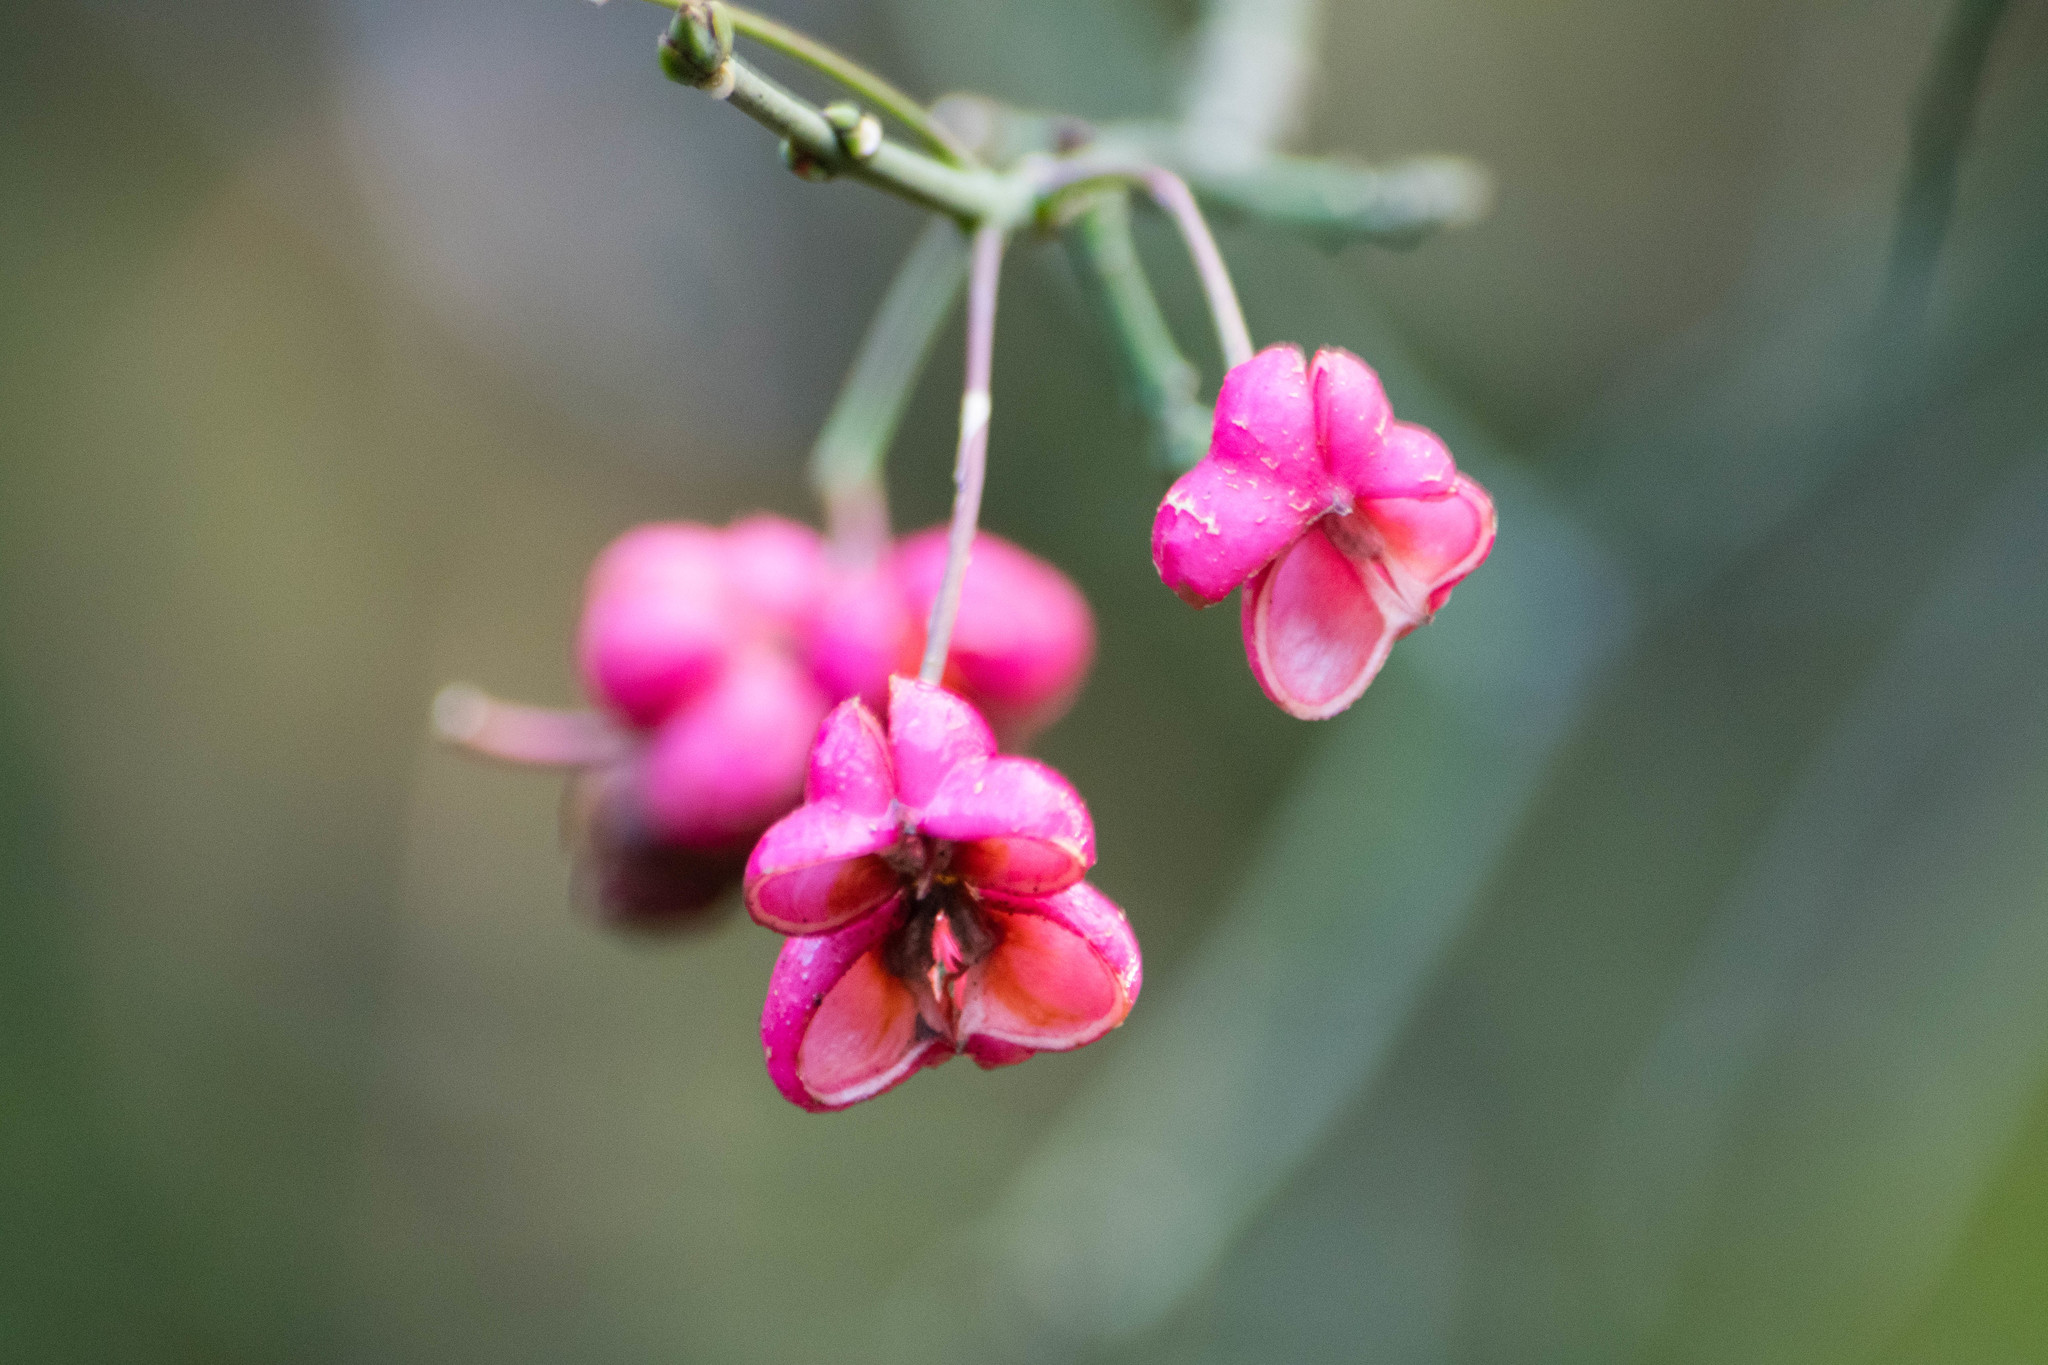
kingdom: Plantae
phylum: Tracheophyta
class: Magnoliopsida
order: Celastrales
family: Celastraceae
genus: Euonymus
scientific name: Euonymus europaeus
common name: Spindle
